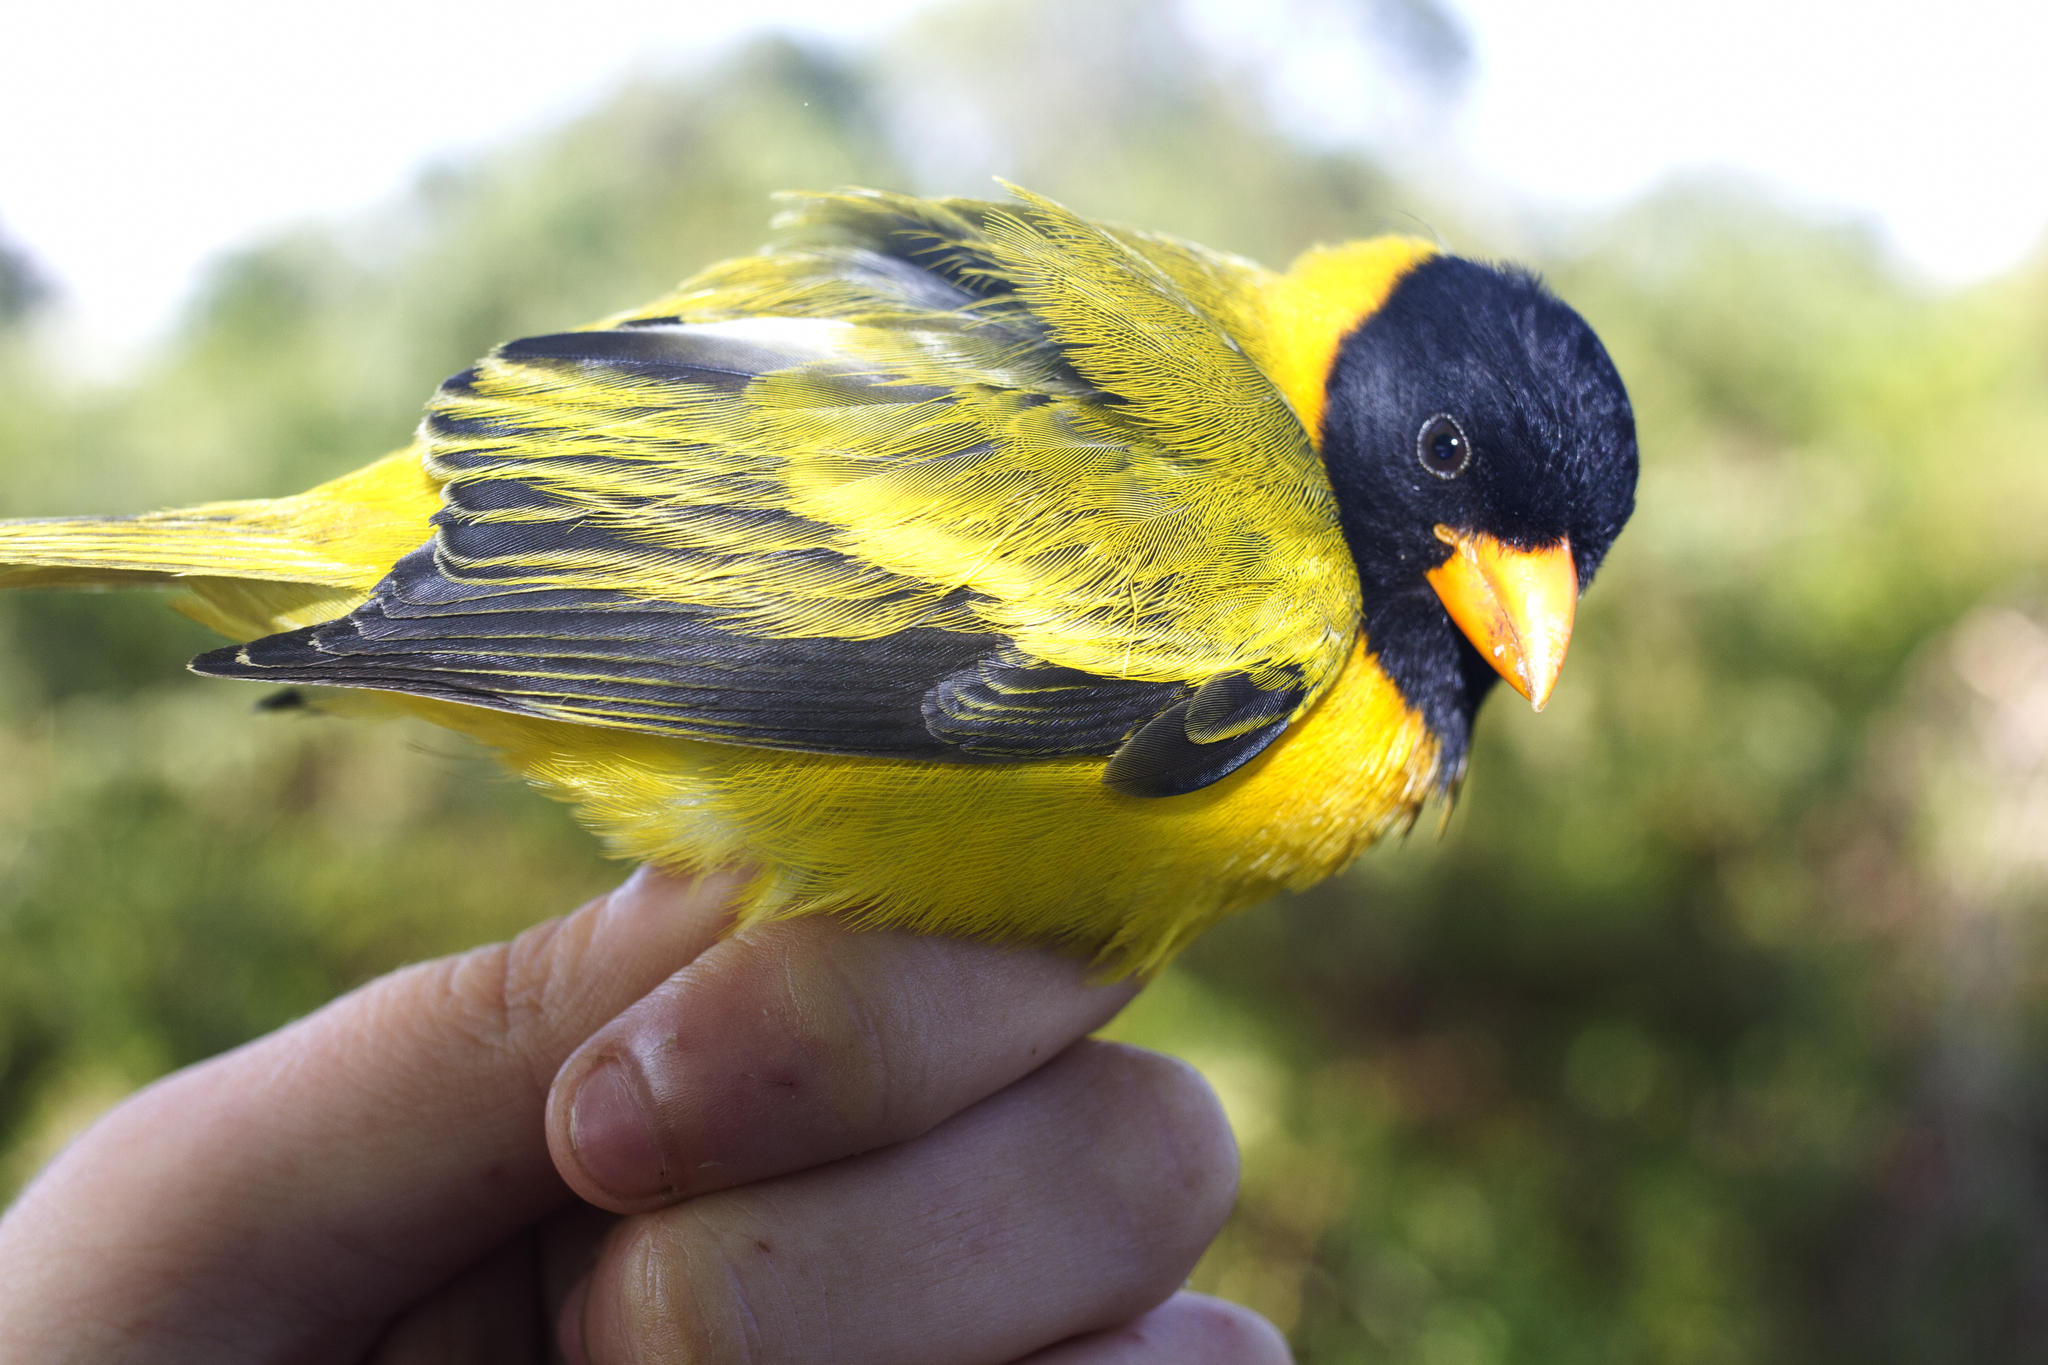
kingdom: Animalia
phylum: Chordata
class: Aves
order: Passeriformes
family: Fringillidae
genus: Linurgus
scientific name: Linurgus olivaceus
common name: Oriole finch
